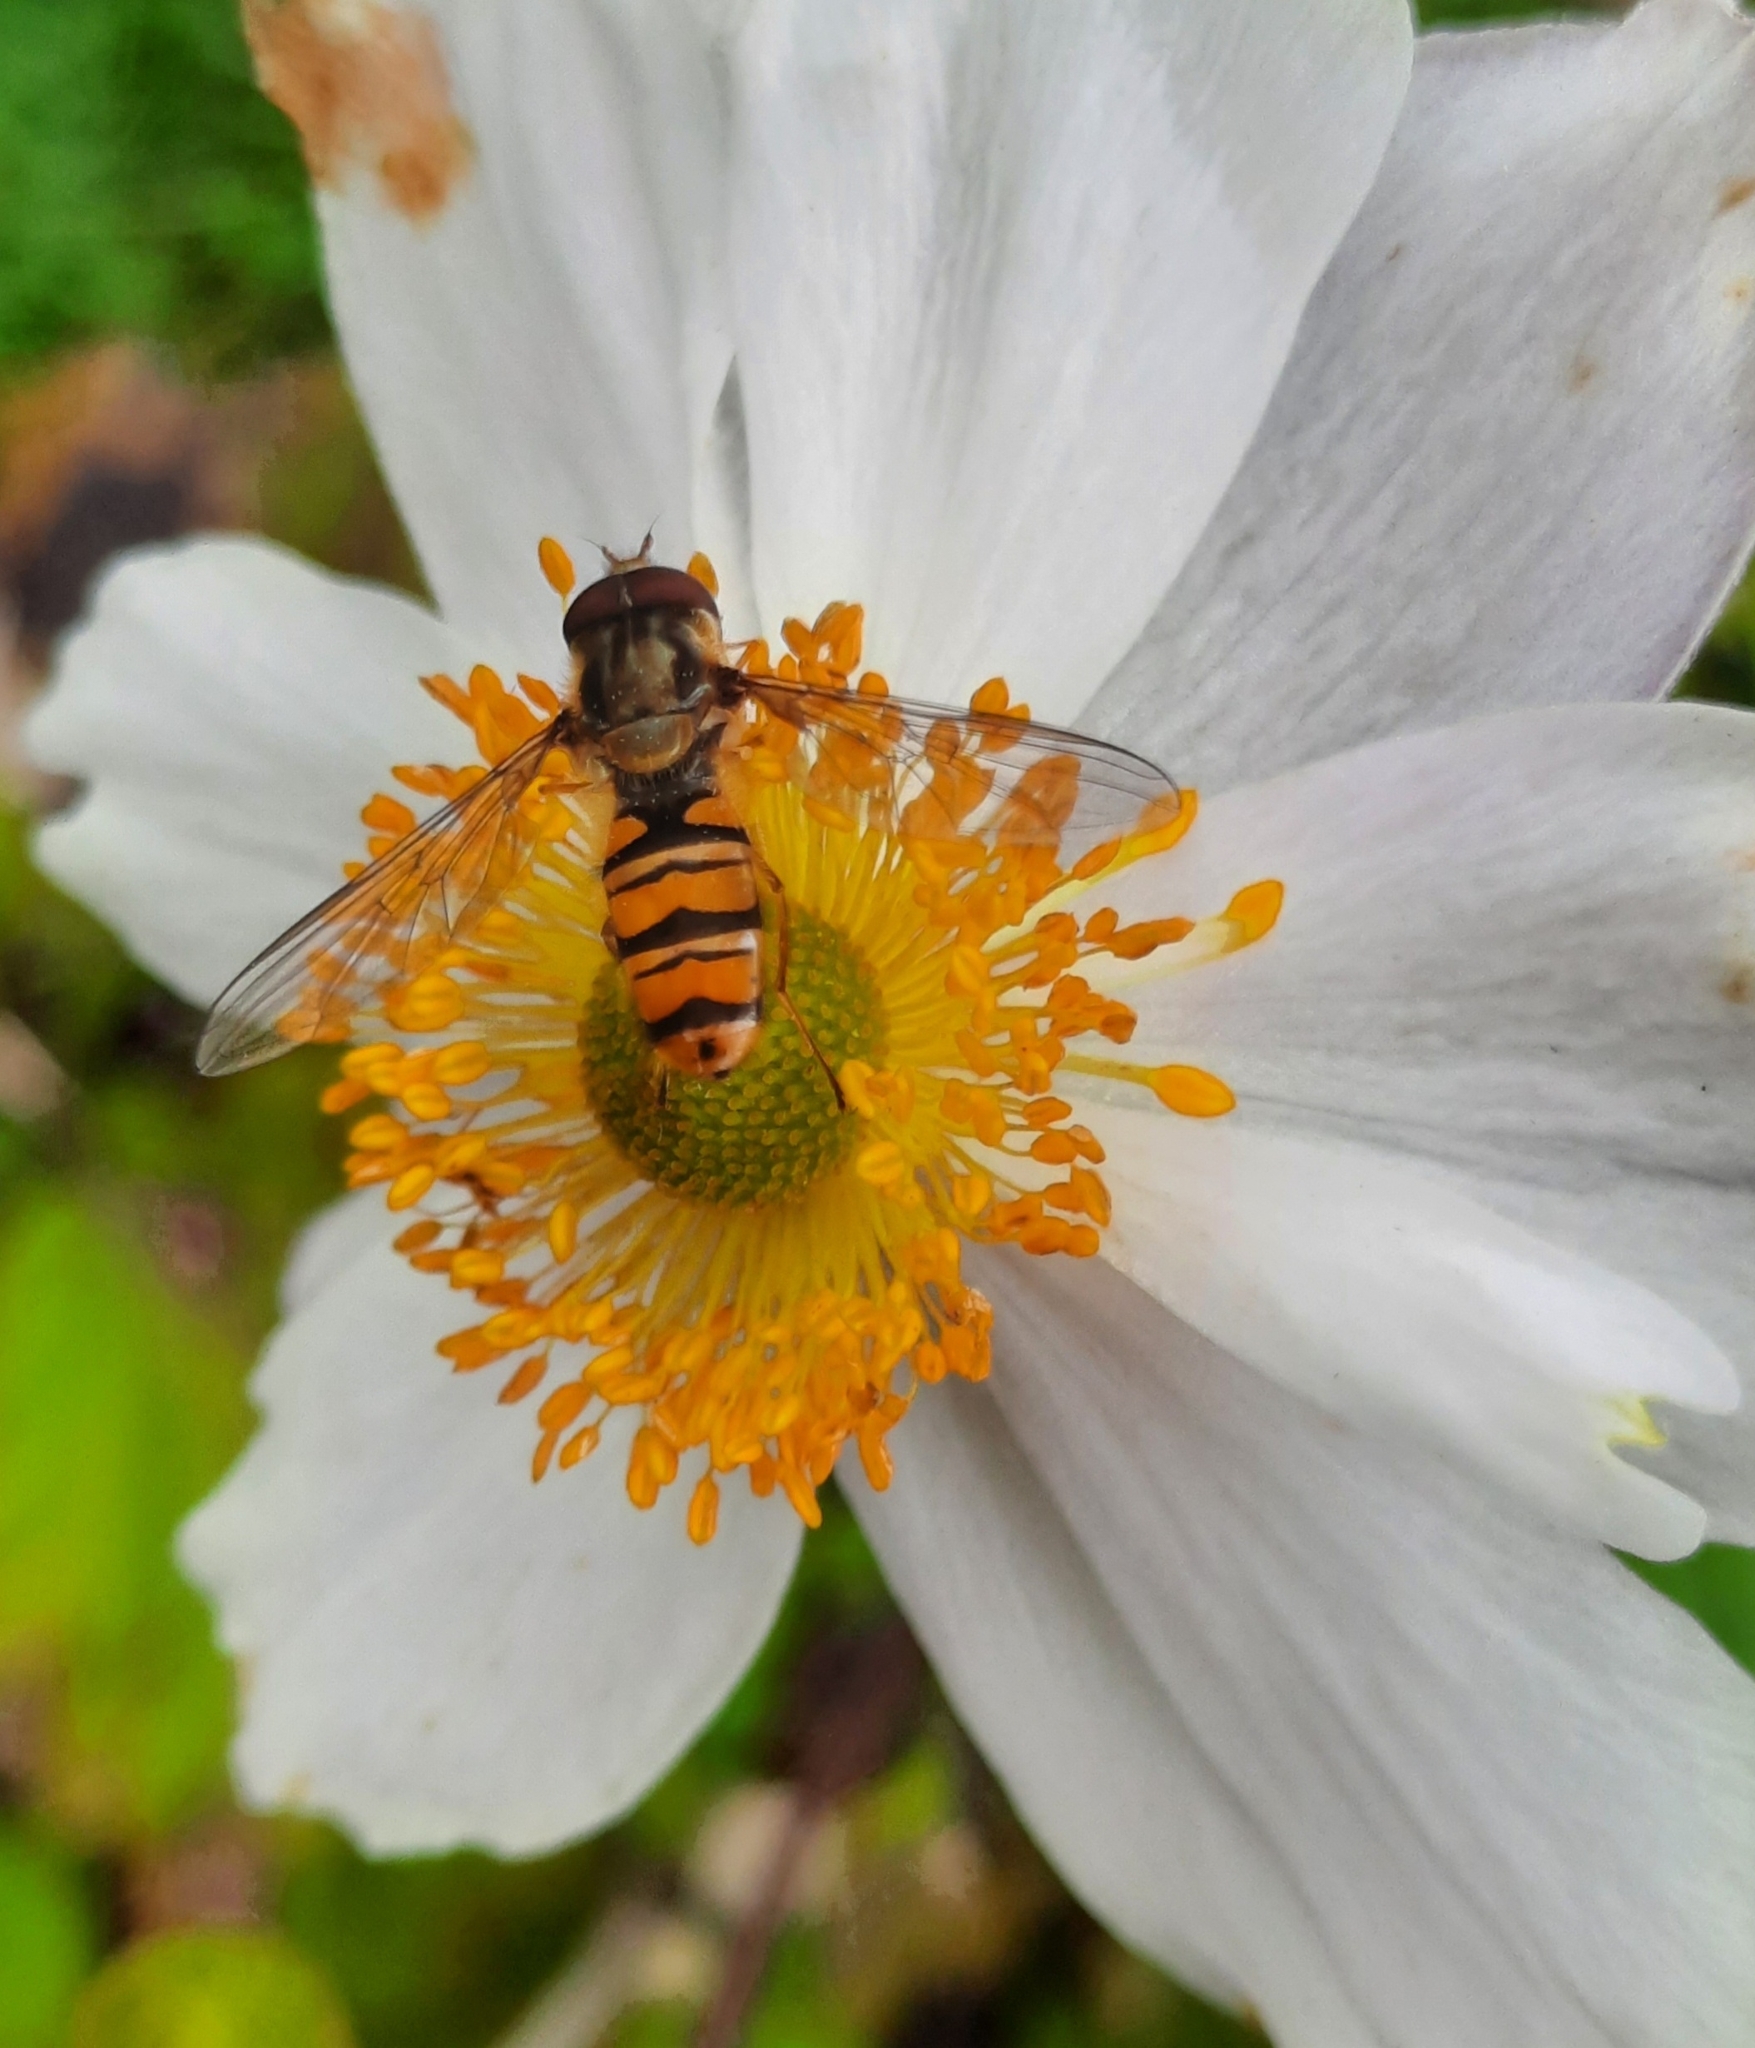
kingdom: Animalia
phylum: Arthropoda
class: Insecta
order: Diptera
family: Syrphidae
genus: Episyrphus
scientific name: Episyrphus balteatus
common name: Marmalade hoverfly
